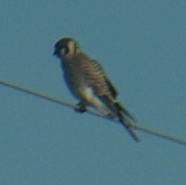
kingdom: Animalia
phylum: Chordata
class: Aves
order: Falconiformes
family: Falconidae
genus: Falco
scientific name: Falco sparverius
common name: American kestrel
